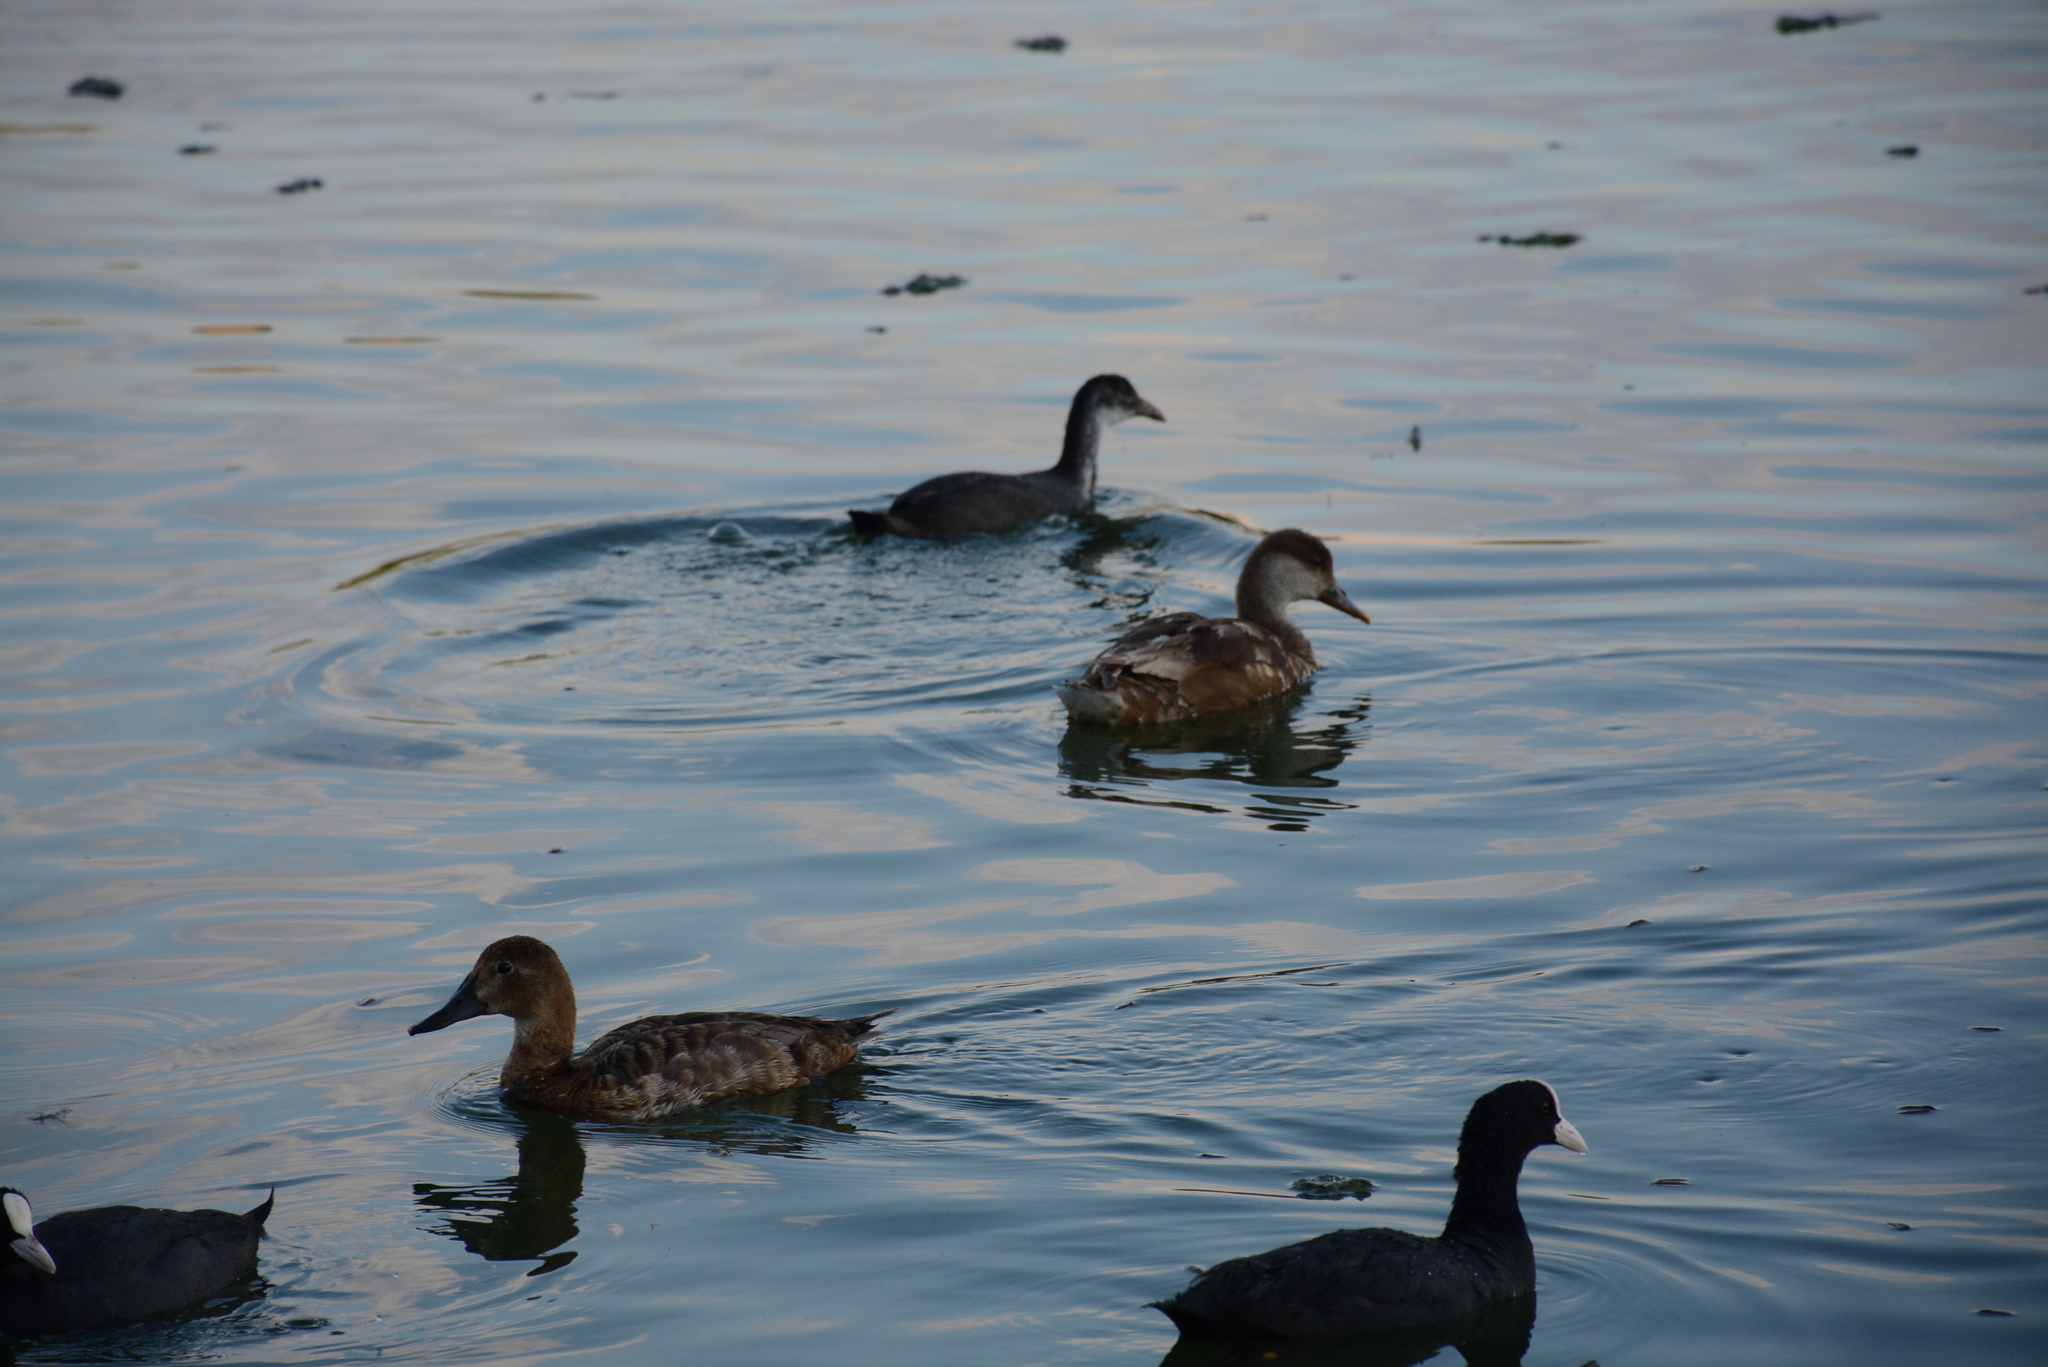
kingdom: Animalia
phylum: Chordata
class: Aves
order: Anseriformes
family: Anatidae
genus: Netta
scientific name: Netta rufina
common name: Red-crested pochard
